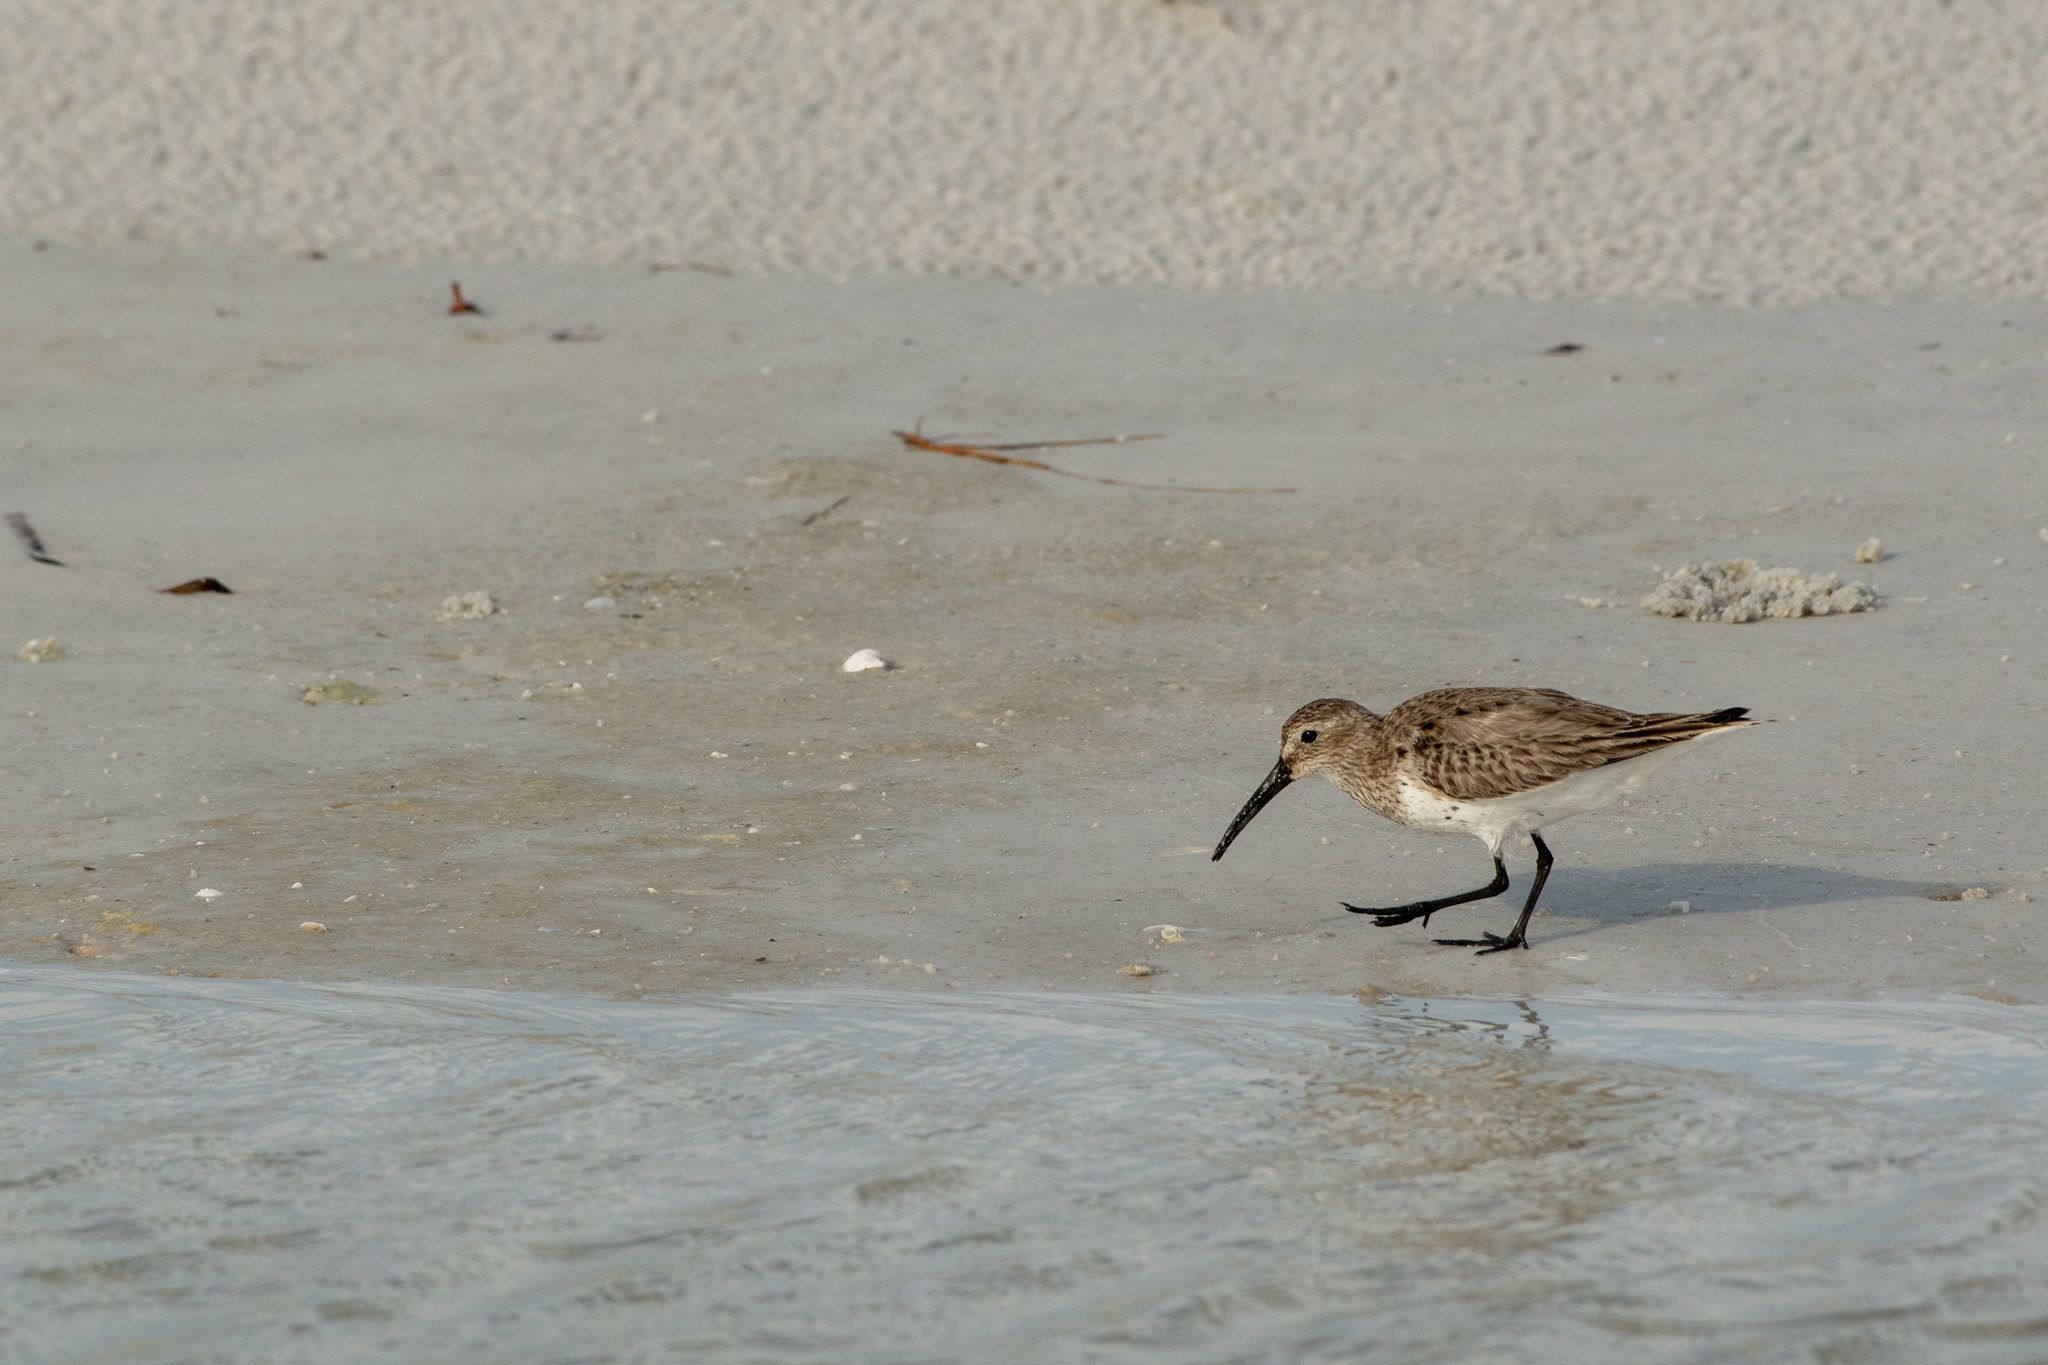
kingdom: Animalia
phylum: Chordata
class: Aves
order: Charadriiformes
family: Scolopacidae
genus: Calidris
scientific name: Calidris alpina
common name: Dunlin
